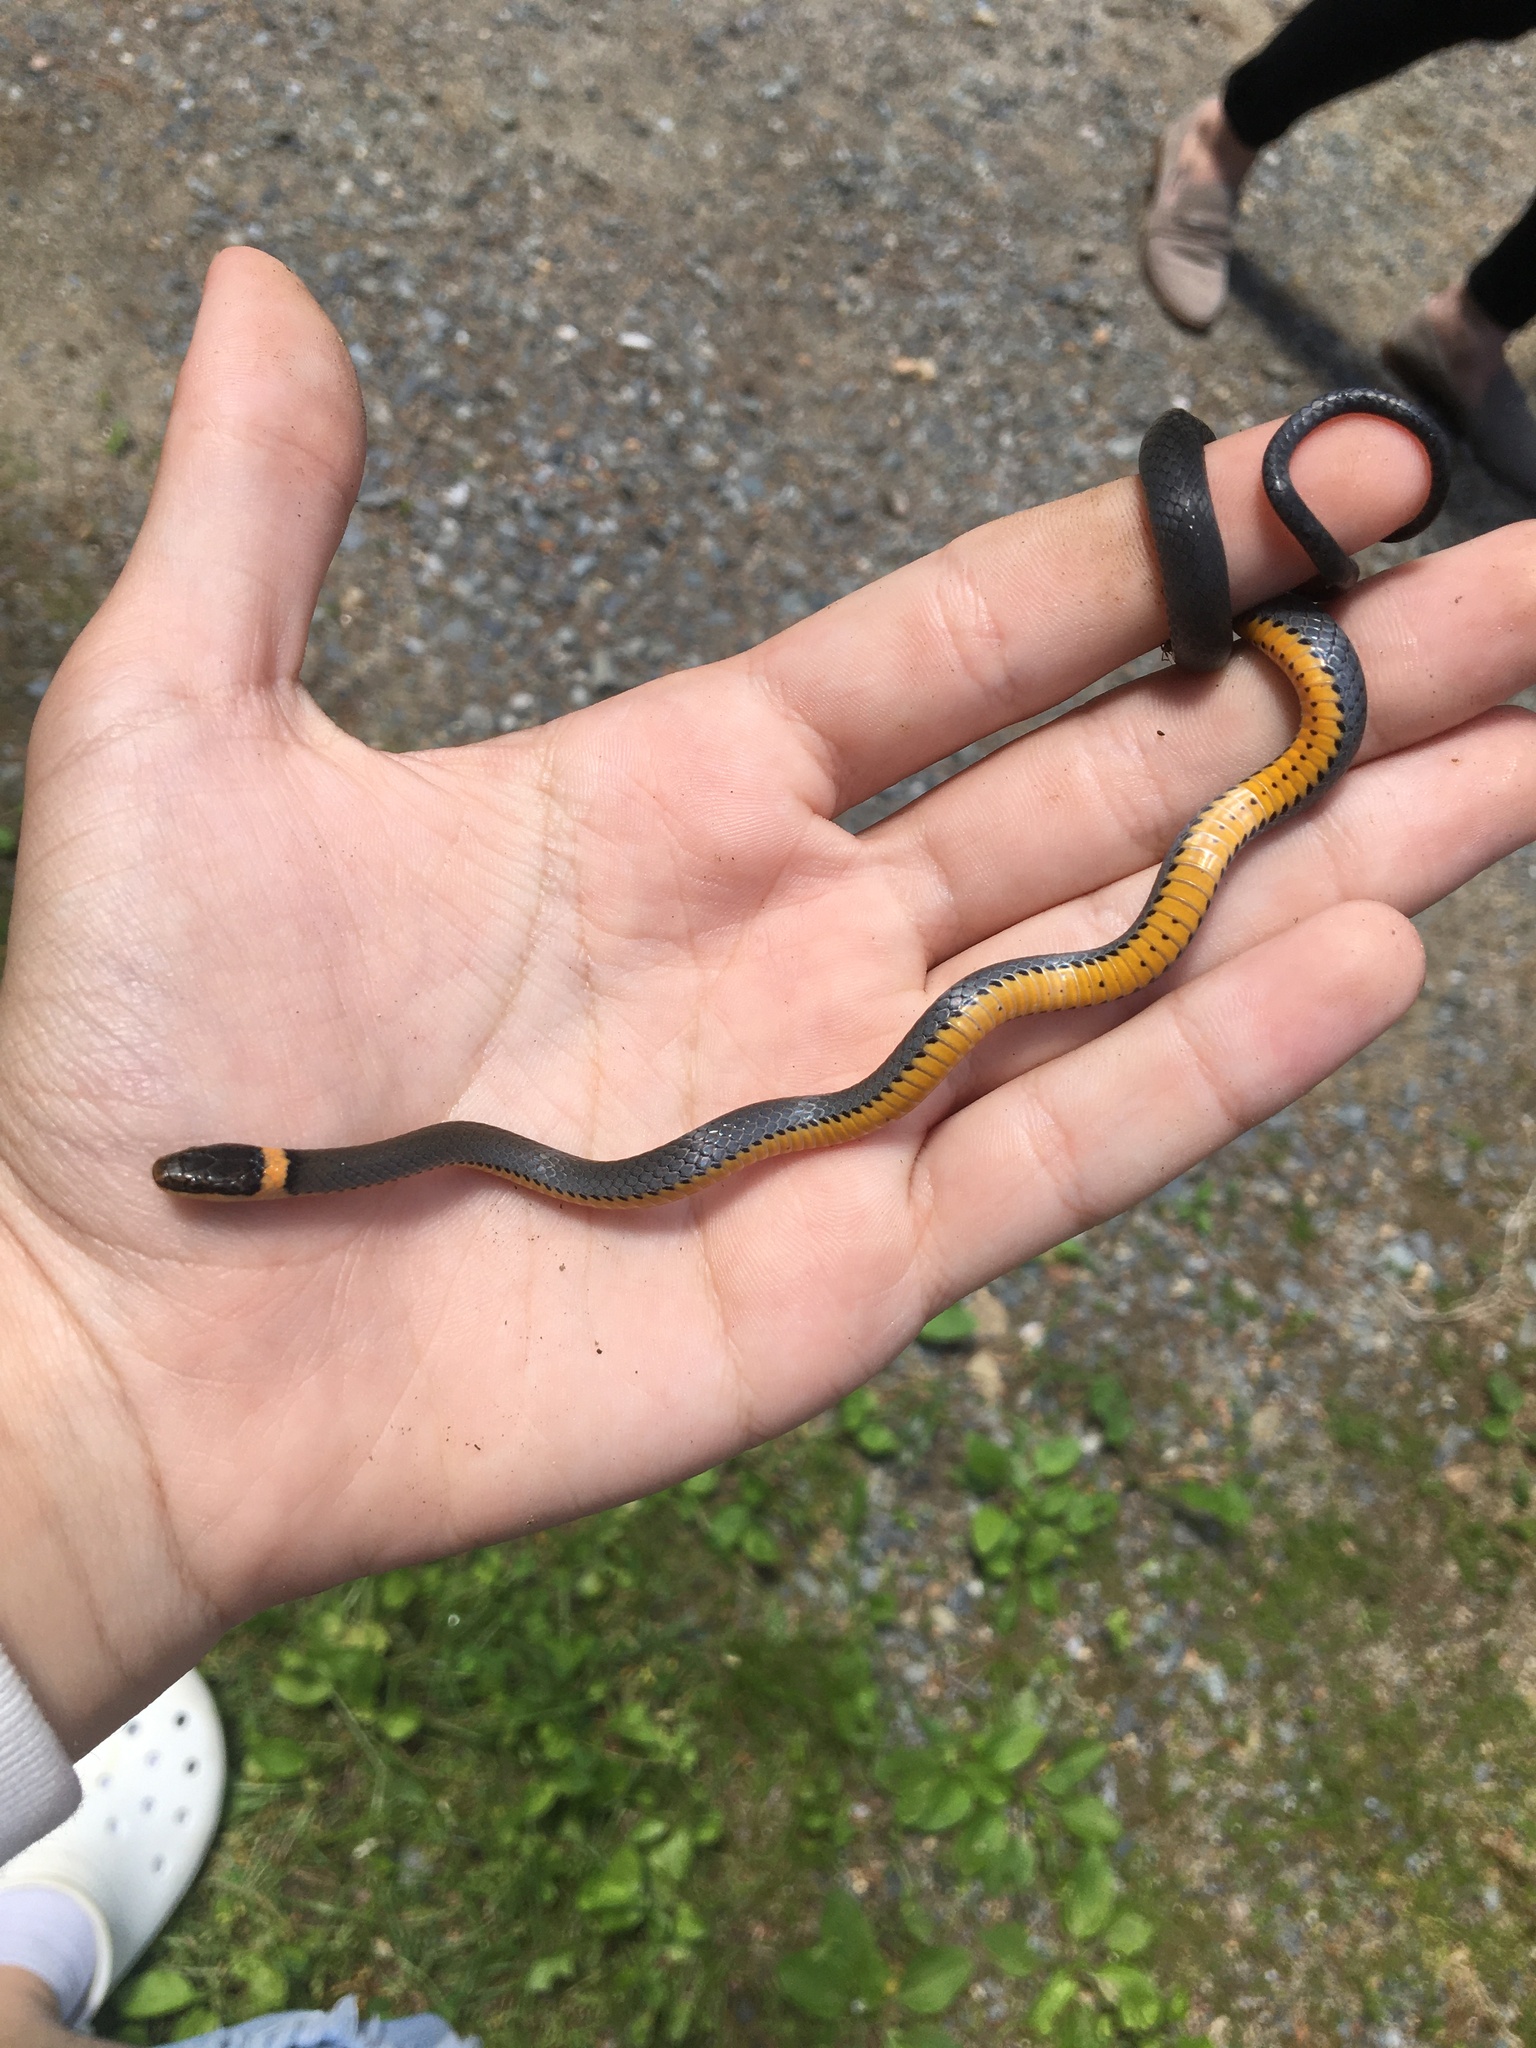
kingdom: Animalia
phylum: Chordata
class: Squamata
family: Colubridae
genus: Diadophis
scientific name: Diadophis punctatus
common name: Ringneck snake
